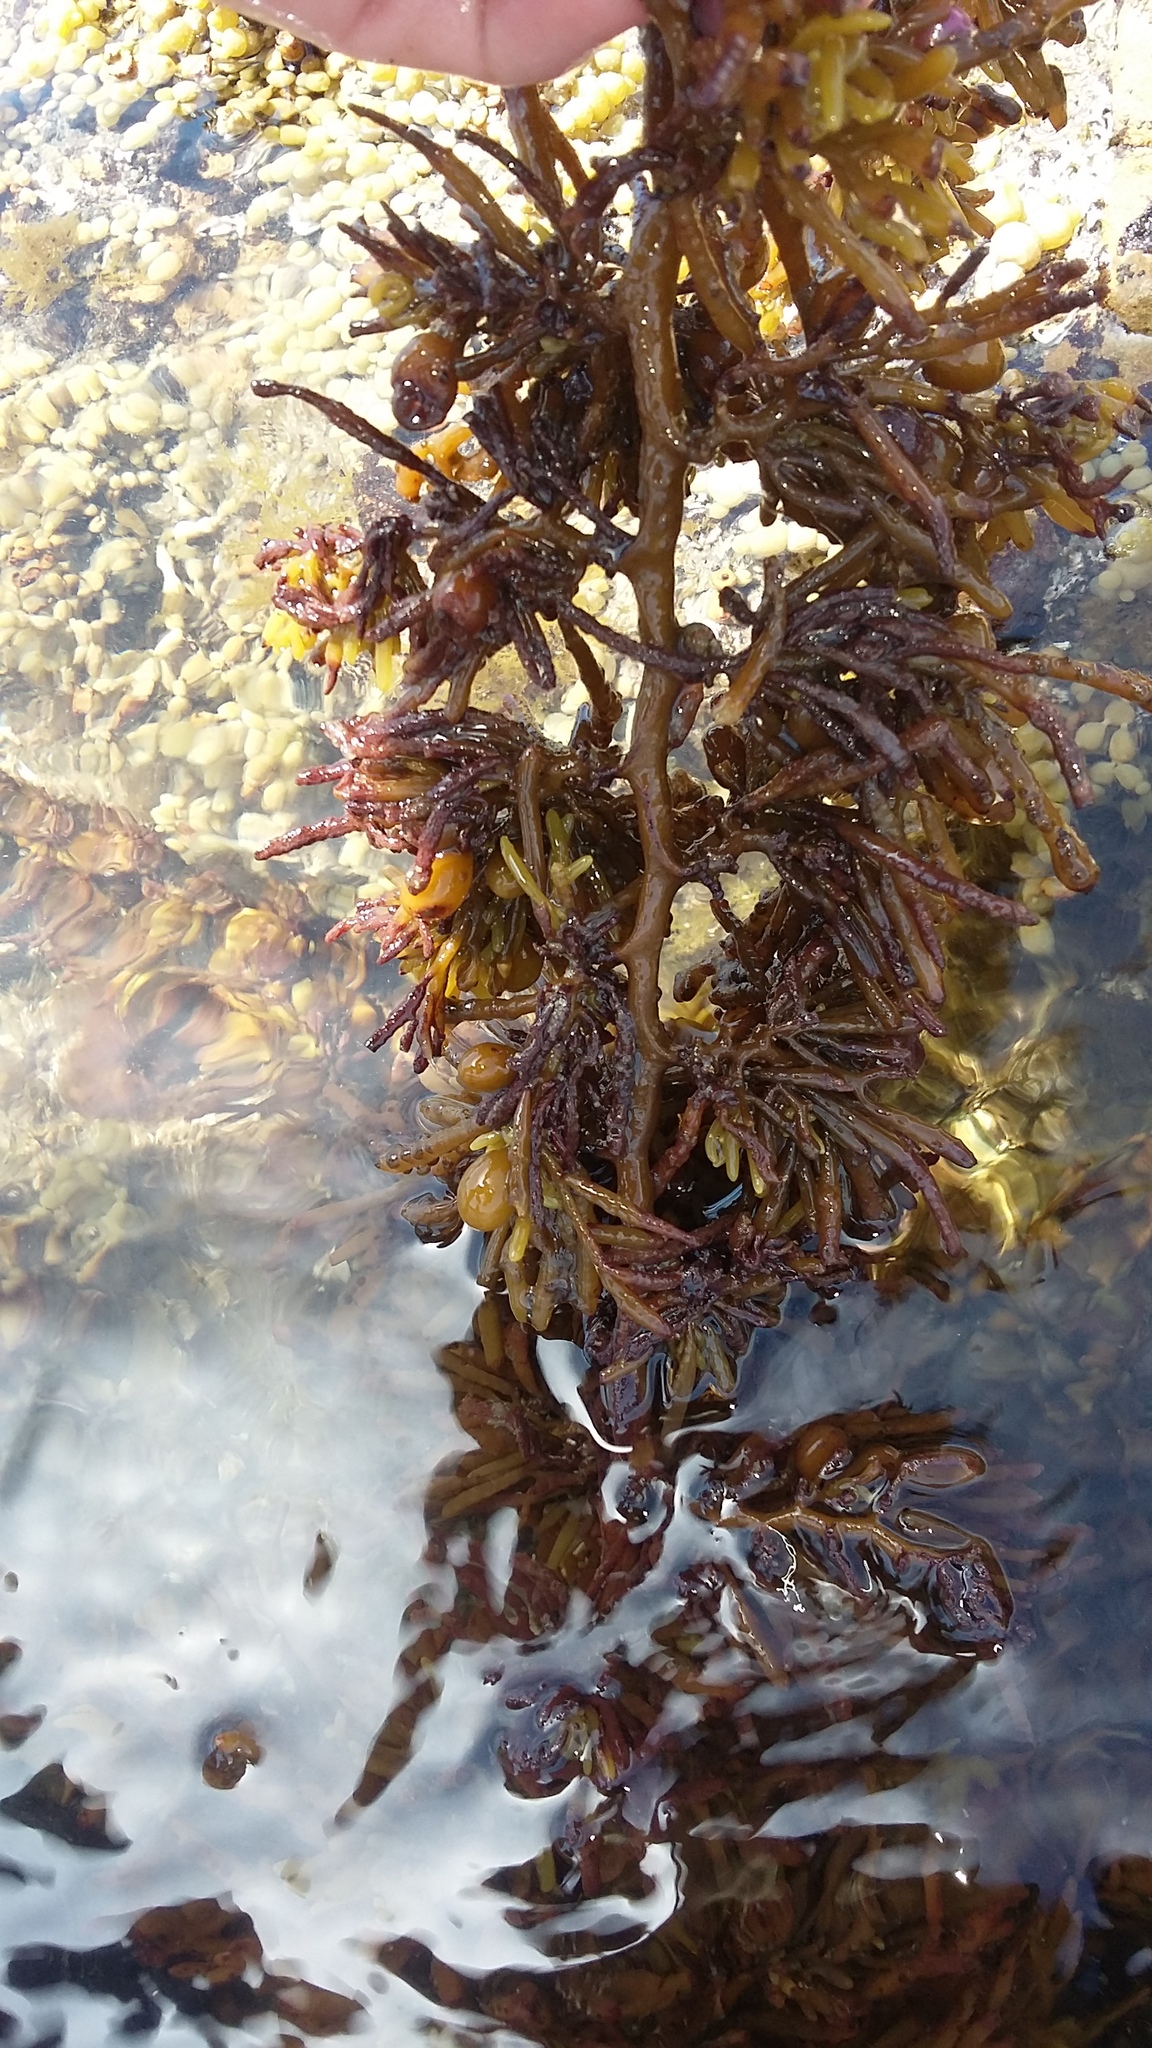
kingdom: Chromista
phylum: Ochrophyta
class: Phaeophyceae
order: Fucales
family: Sargassaceae
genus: Cystophora
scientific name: Cystophora torulosa
